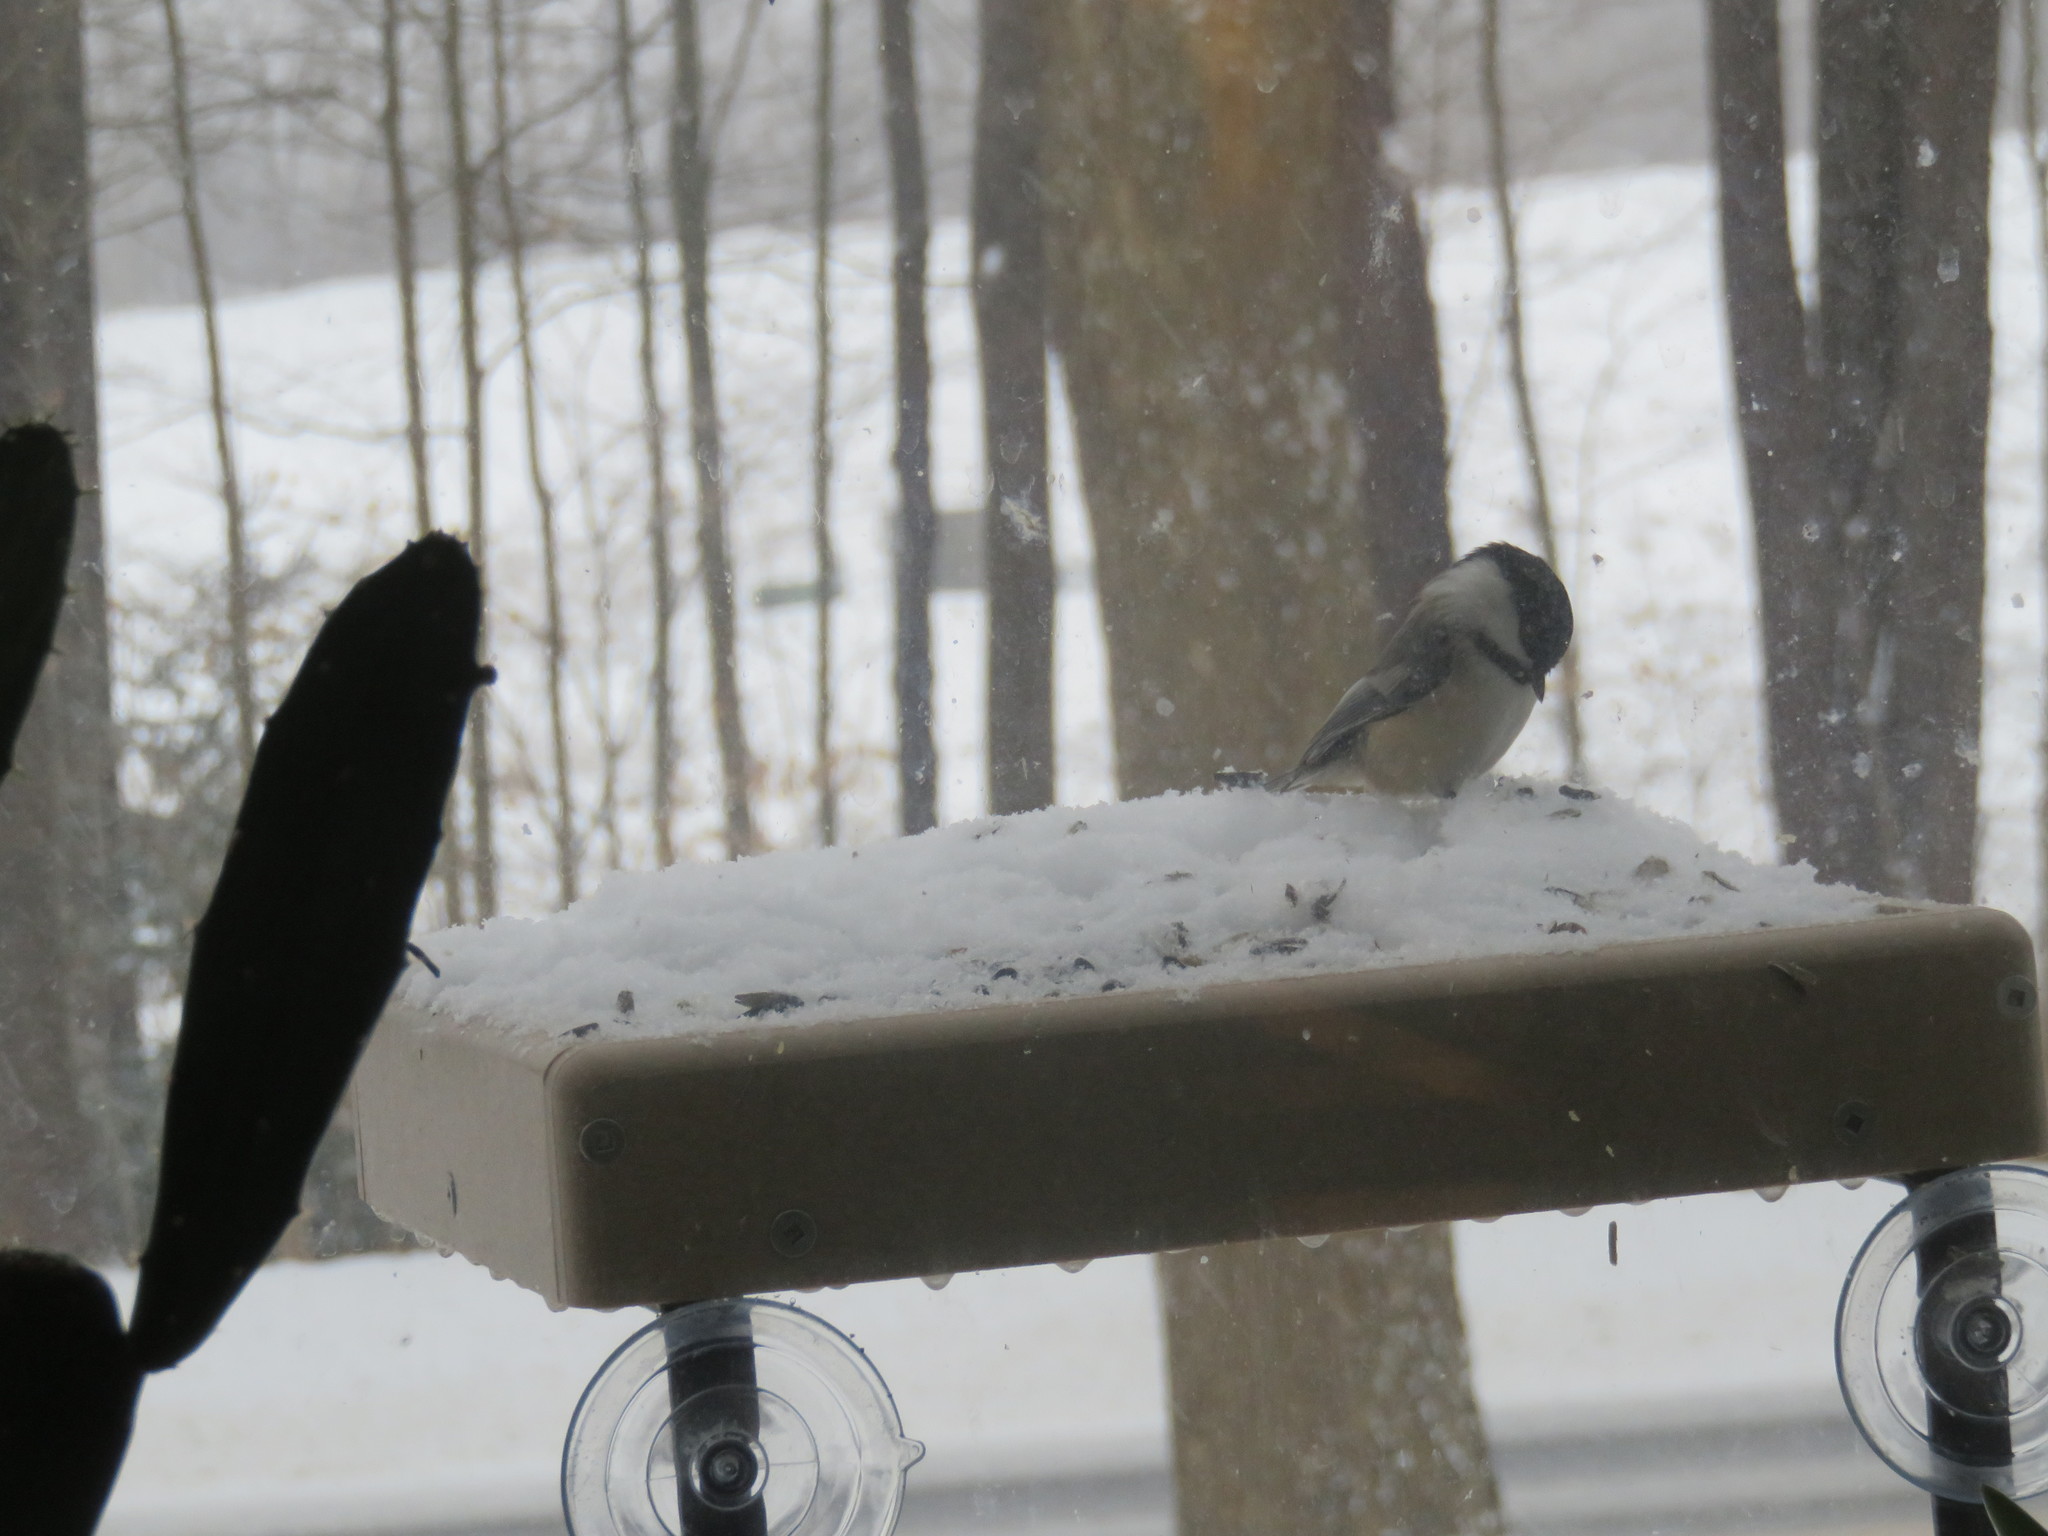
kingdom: Animalia
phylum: Chordata
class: Aves
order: Passeriformes
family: Paridae
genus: Poecile
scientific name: Poecile atricapillus
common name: Black-capped chickadee
